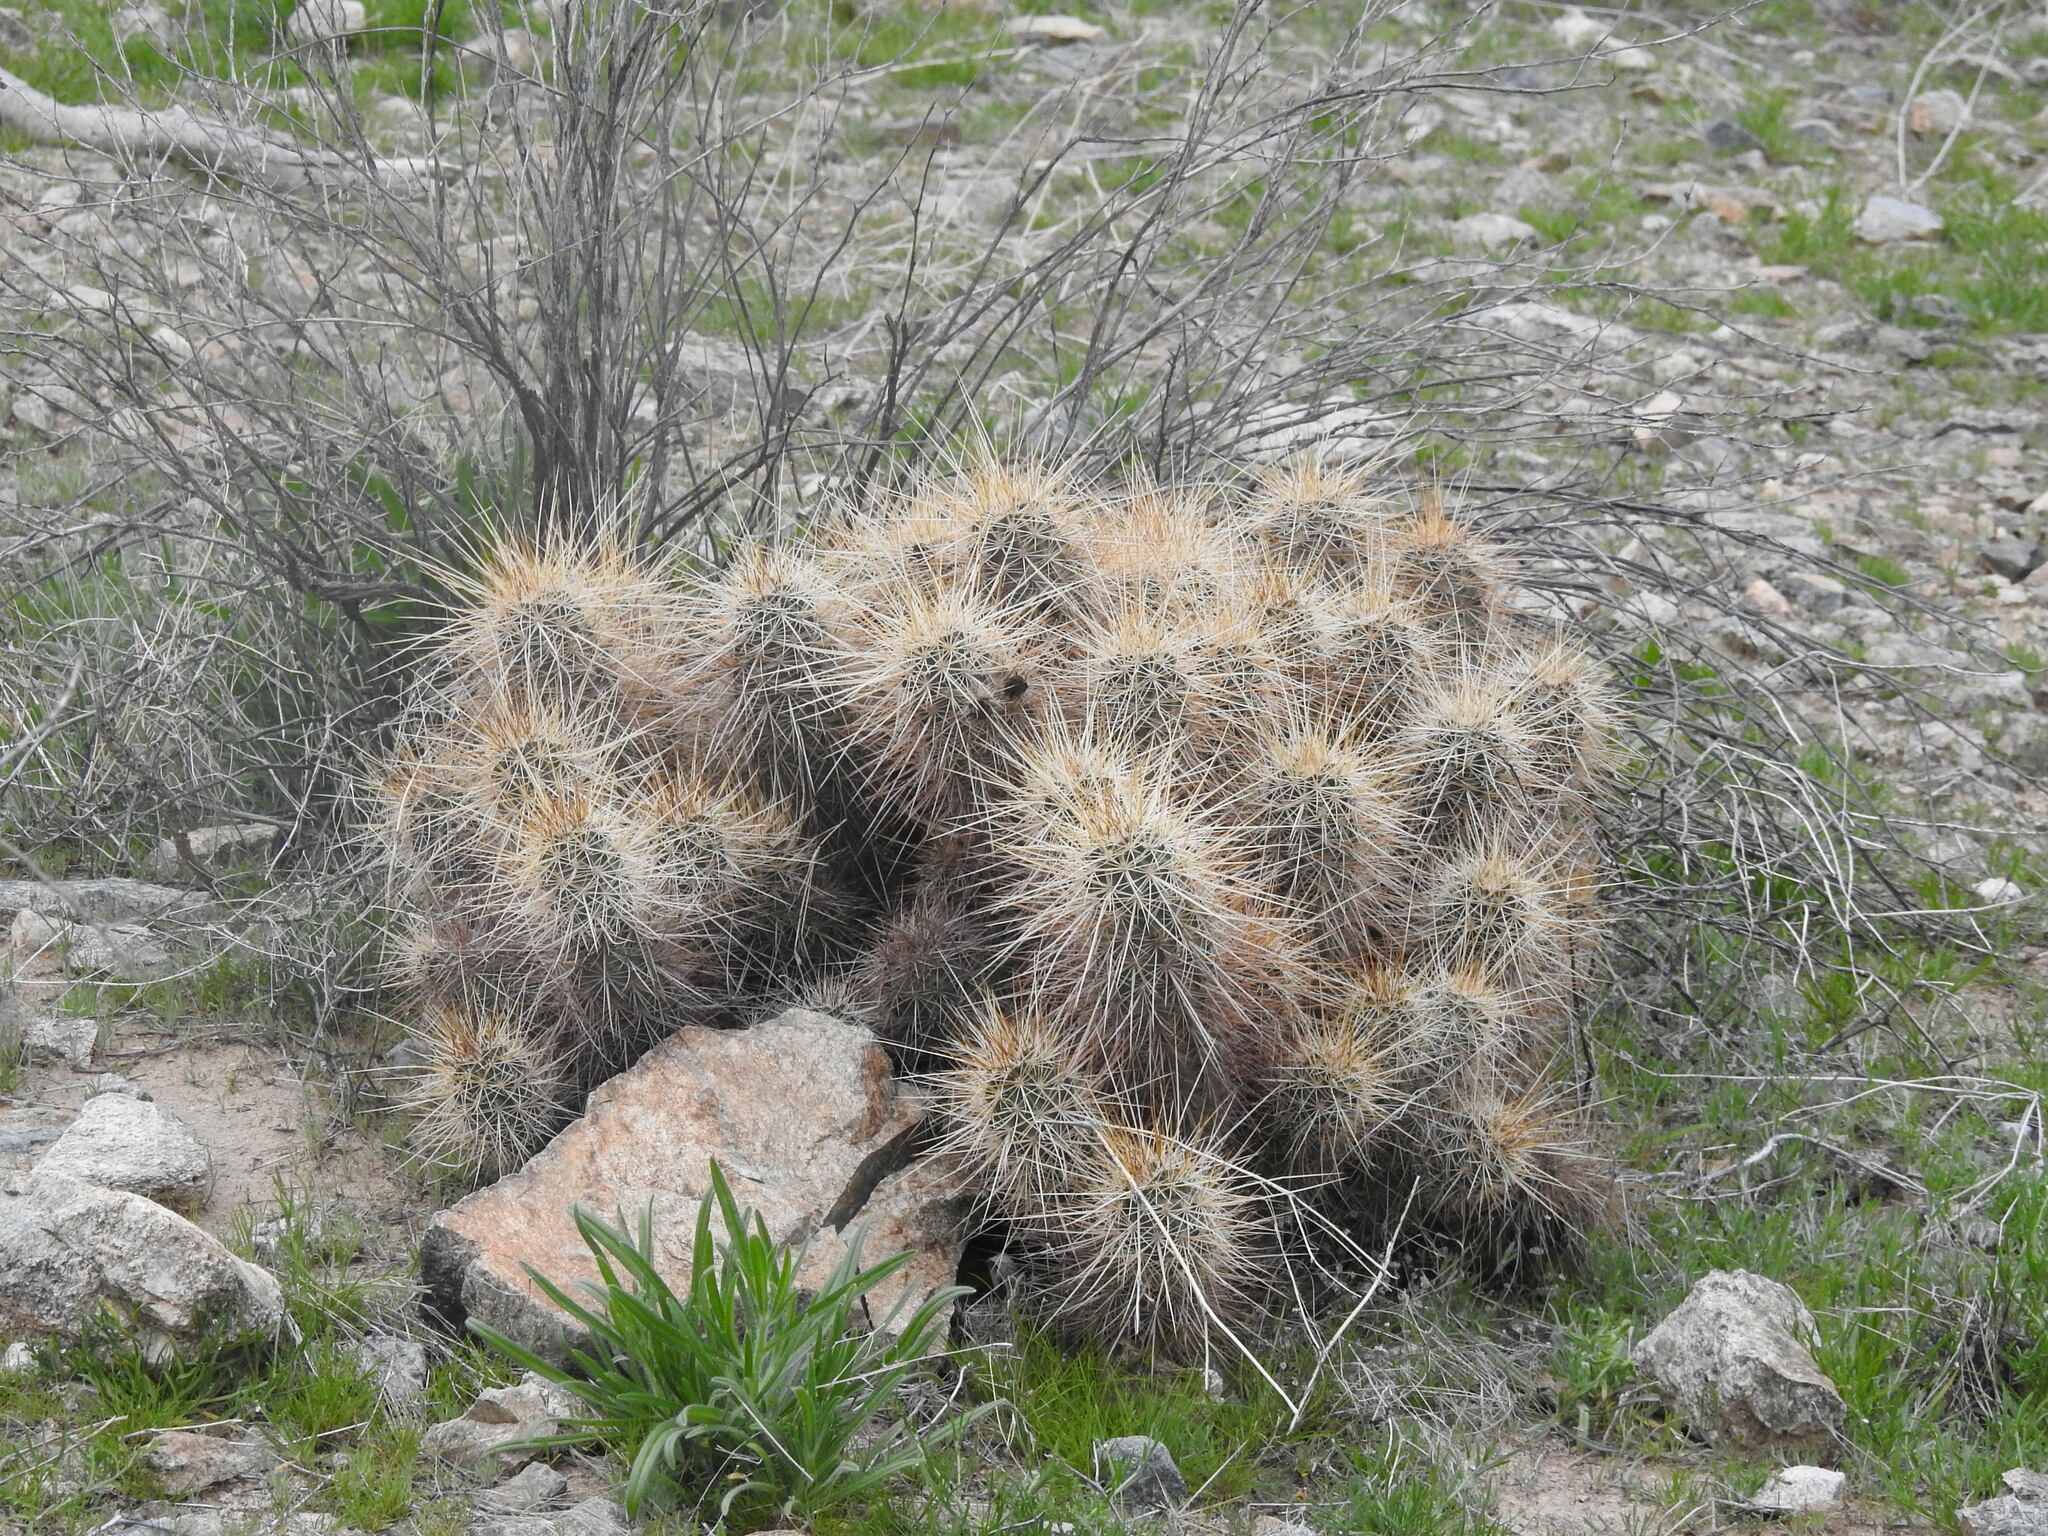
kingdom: Plantae
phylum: Tracheophyta
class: Magnoliopsida
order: Caryophyllales
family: Cactaceae
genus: Echinocereus
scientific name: Echinocereus engelmannii
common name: Engelmann's hedgehog cactus
